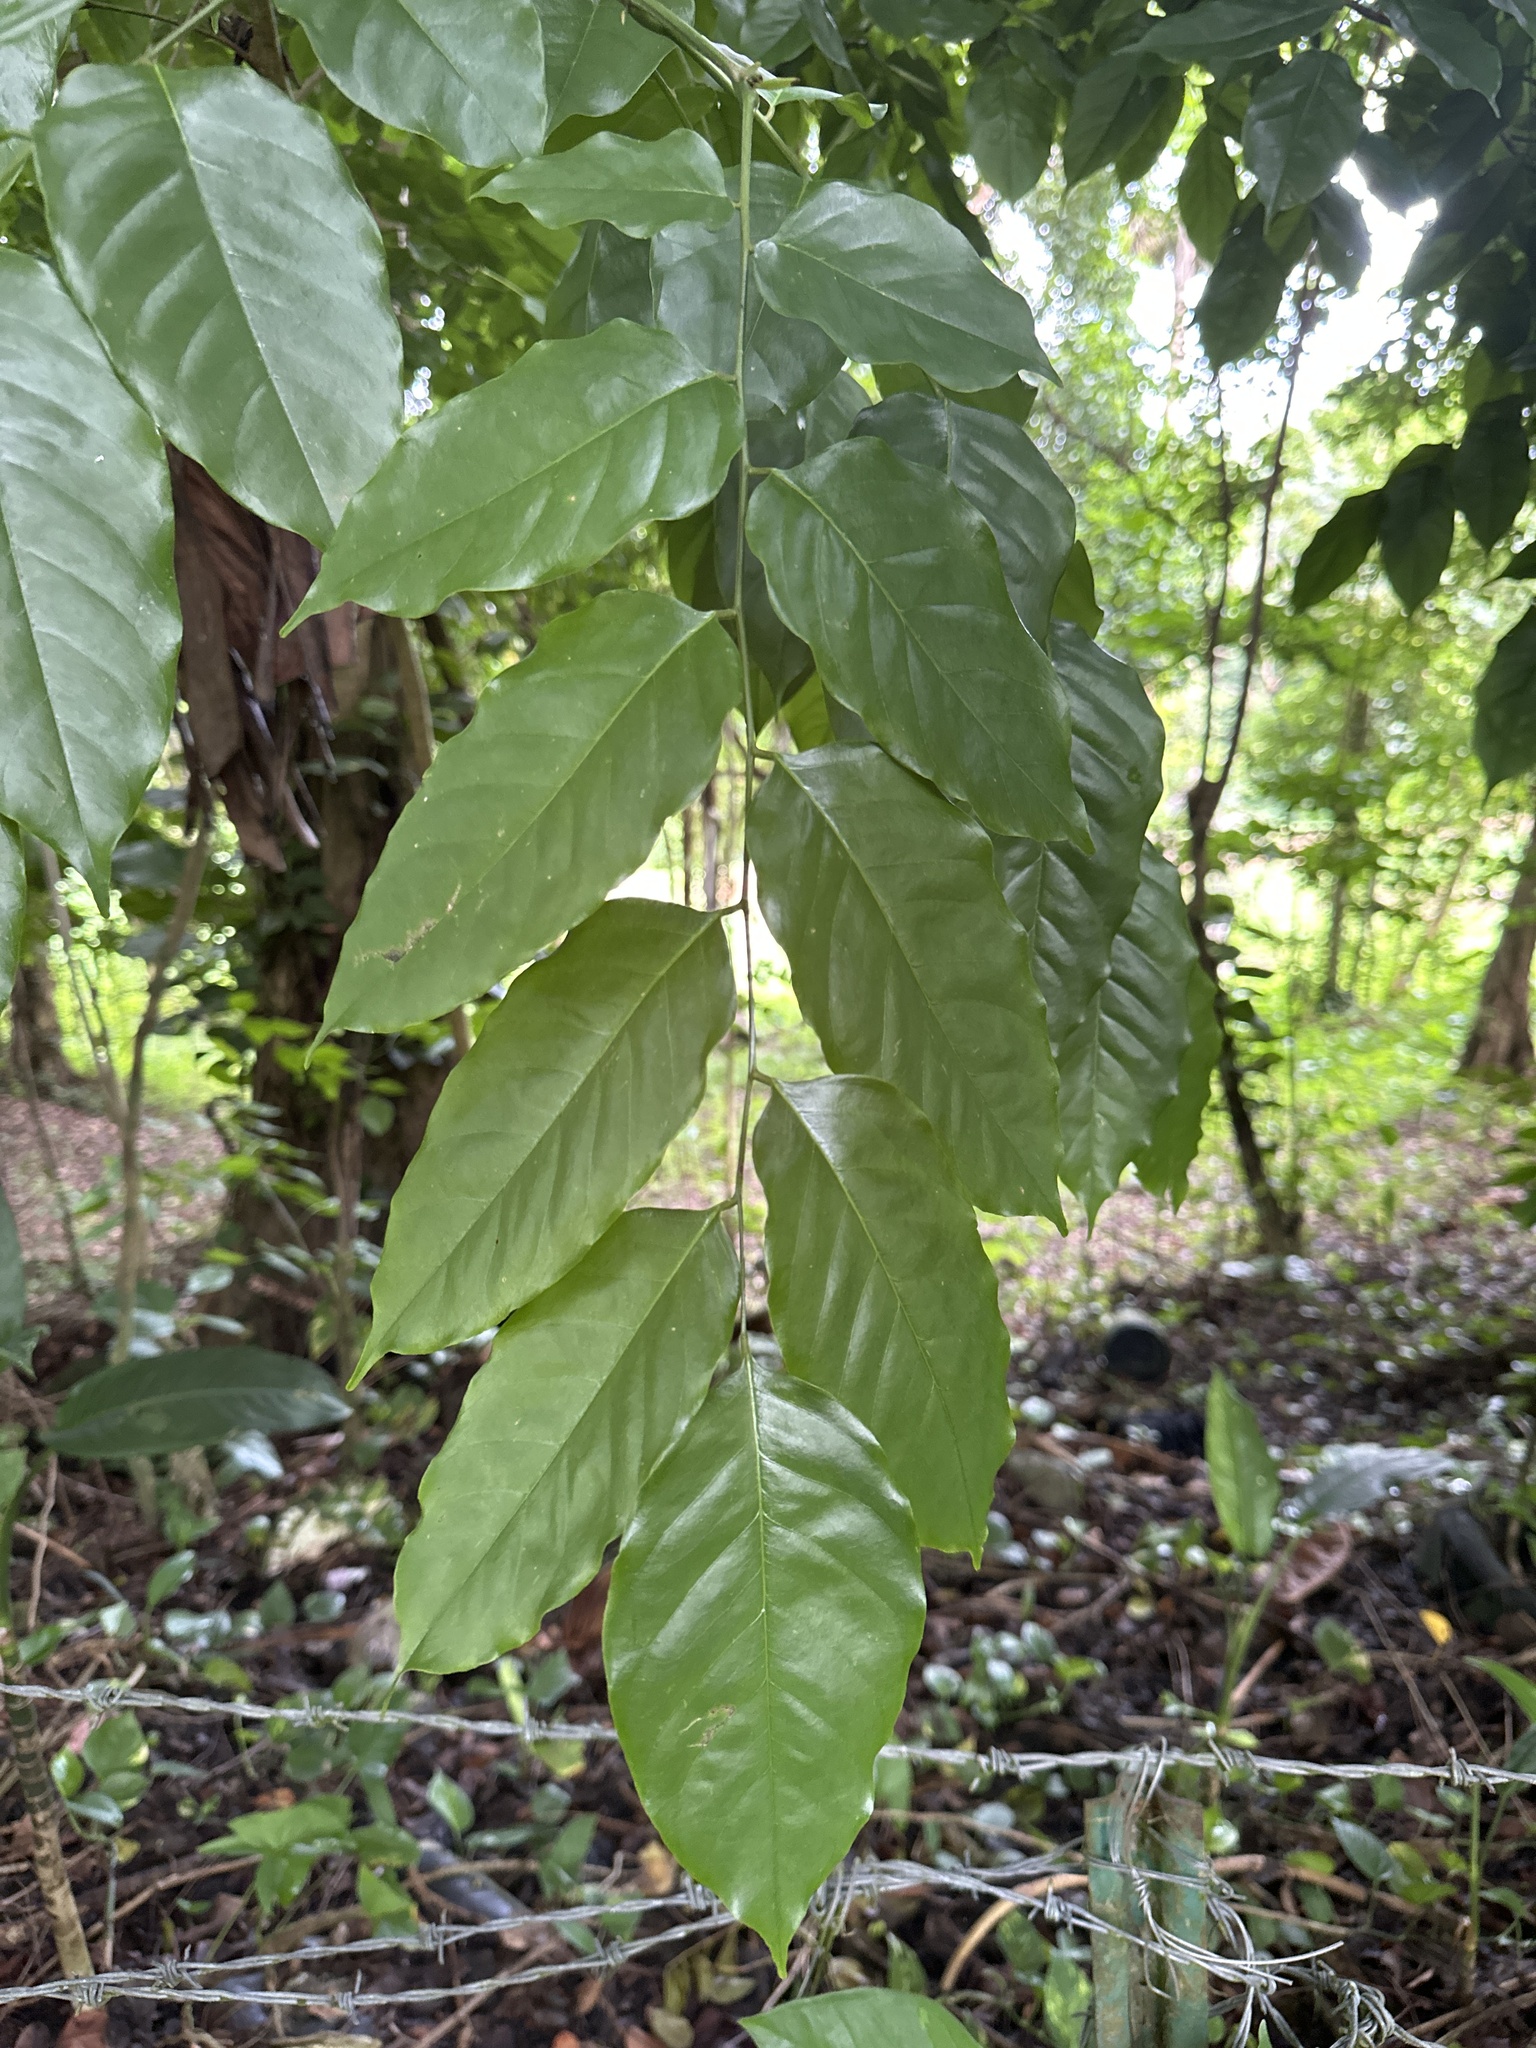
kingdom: Plantae
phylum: Tracheophyta
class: Magnoliopsida
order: Fabales
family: Fabaceae
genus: Pterocarpus
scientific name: Pterocarpus indicus
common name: Burmese rosewood
